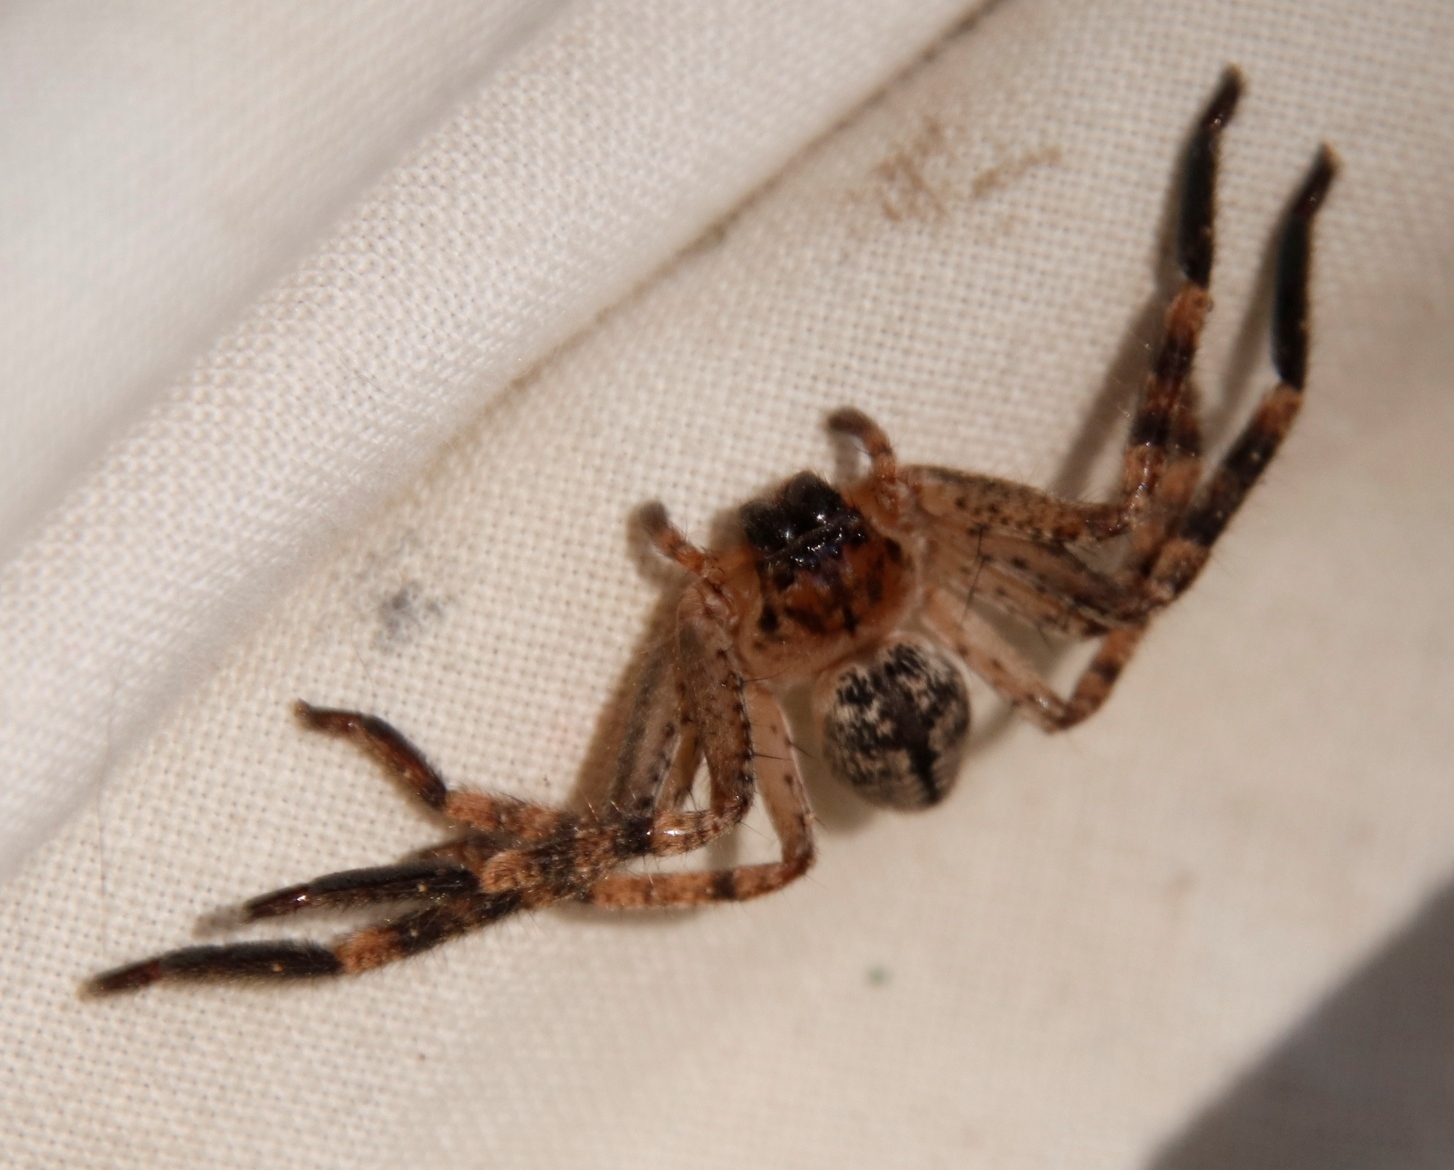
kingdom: Animalia
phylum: Arthropoda
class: Arachnida
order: Araneae
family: Sparassidae
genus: Olios
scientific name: Olios sjostedti
